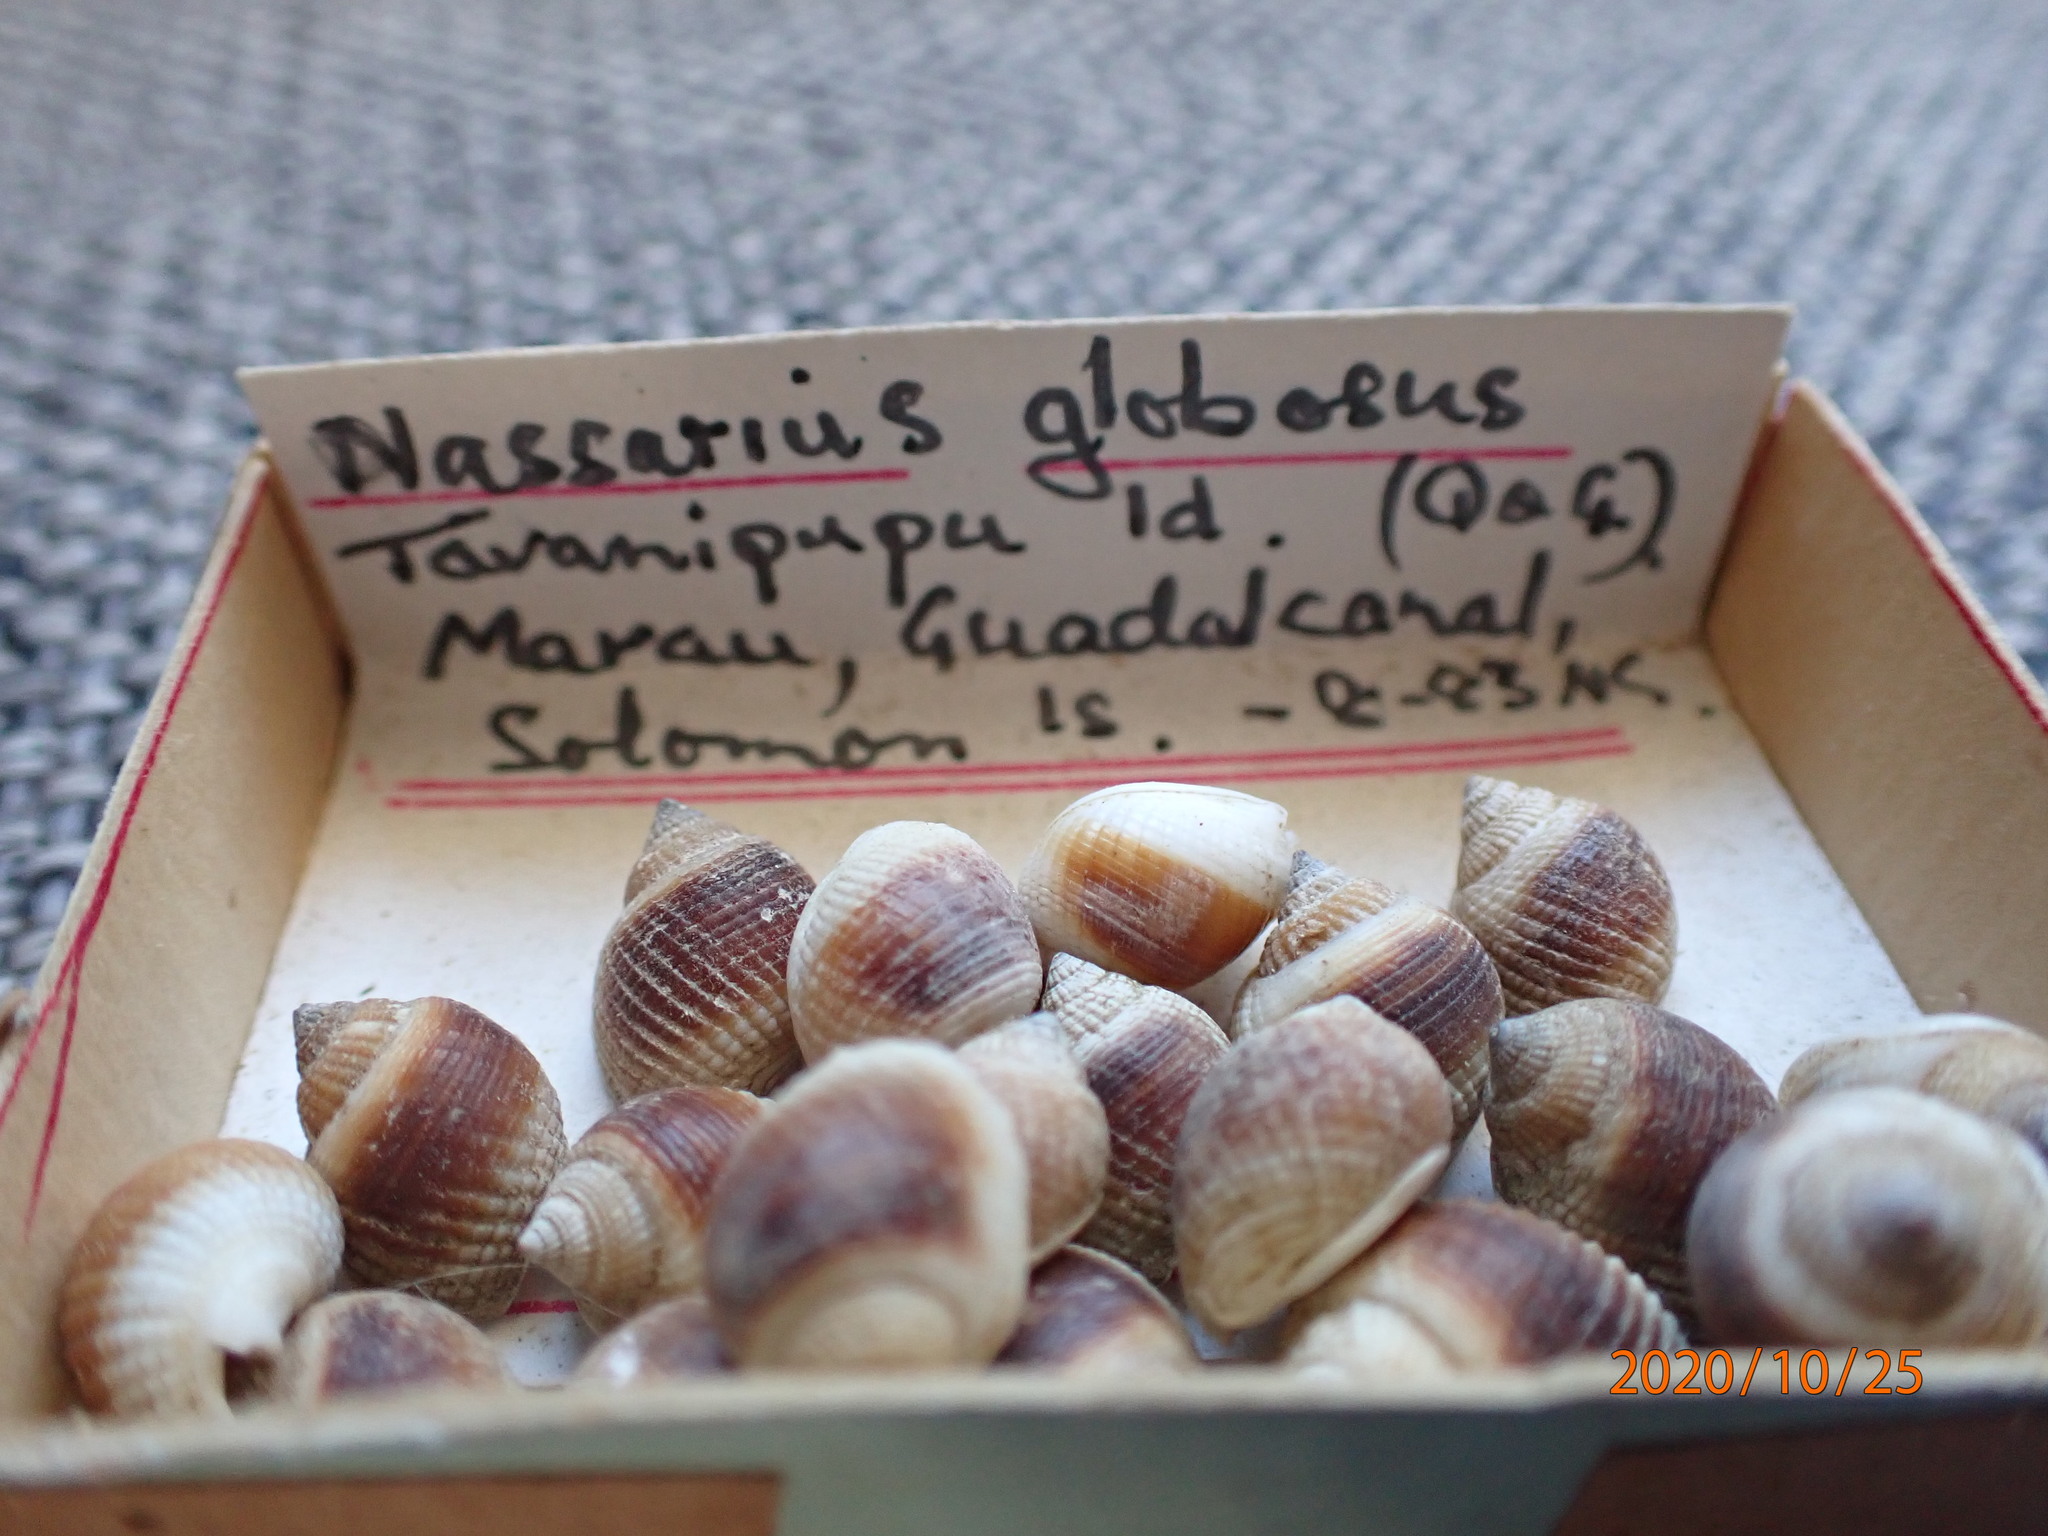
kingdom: Animalia
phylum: Mollusca
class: Gastropoda
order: Neogastropoda
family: Nassariidae
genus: Nassarius
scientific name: Nassarius globosus
